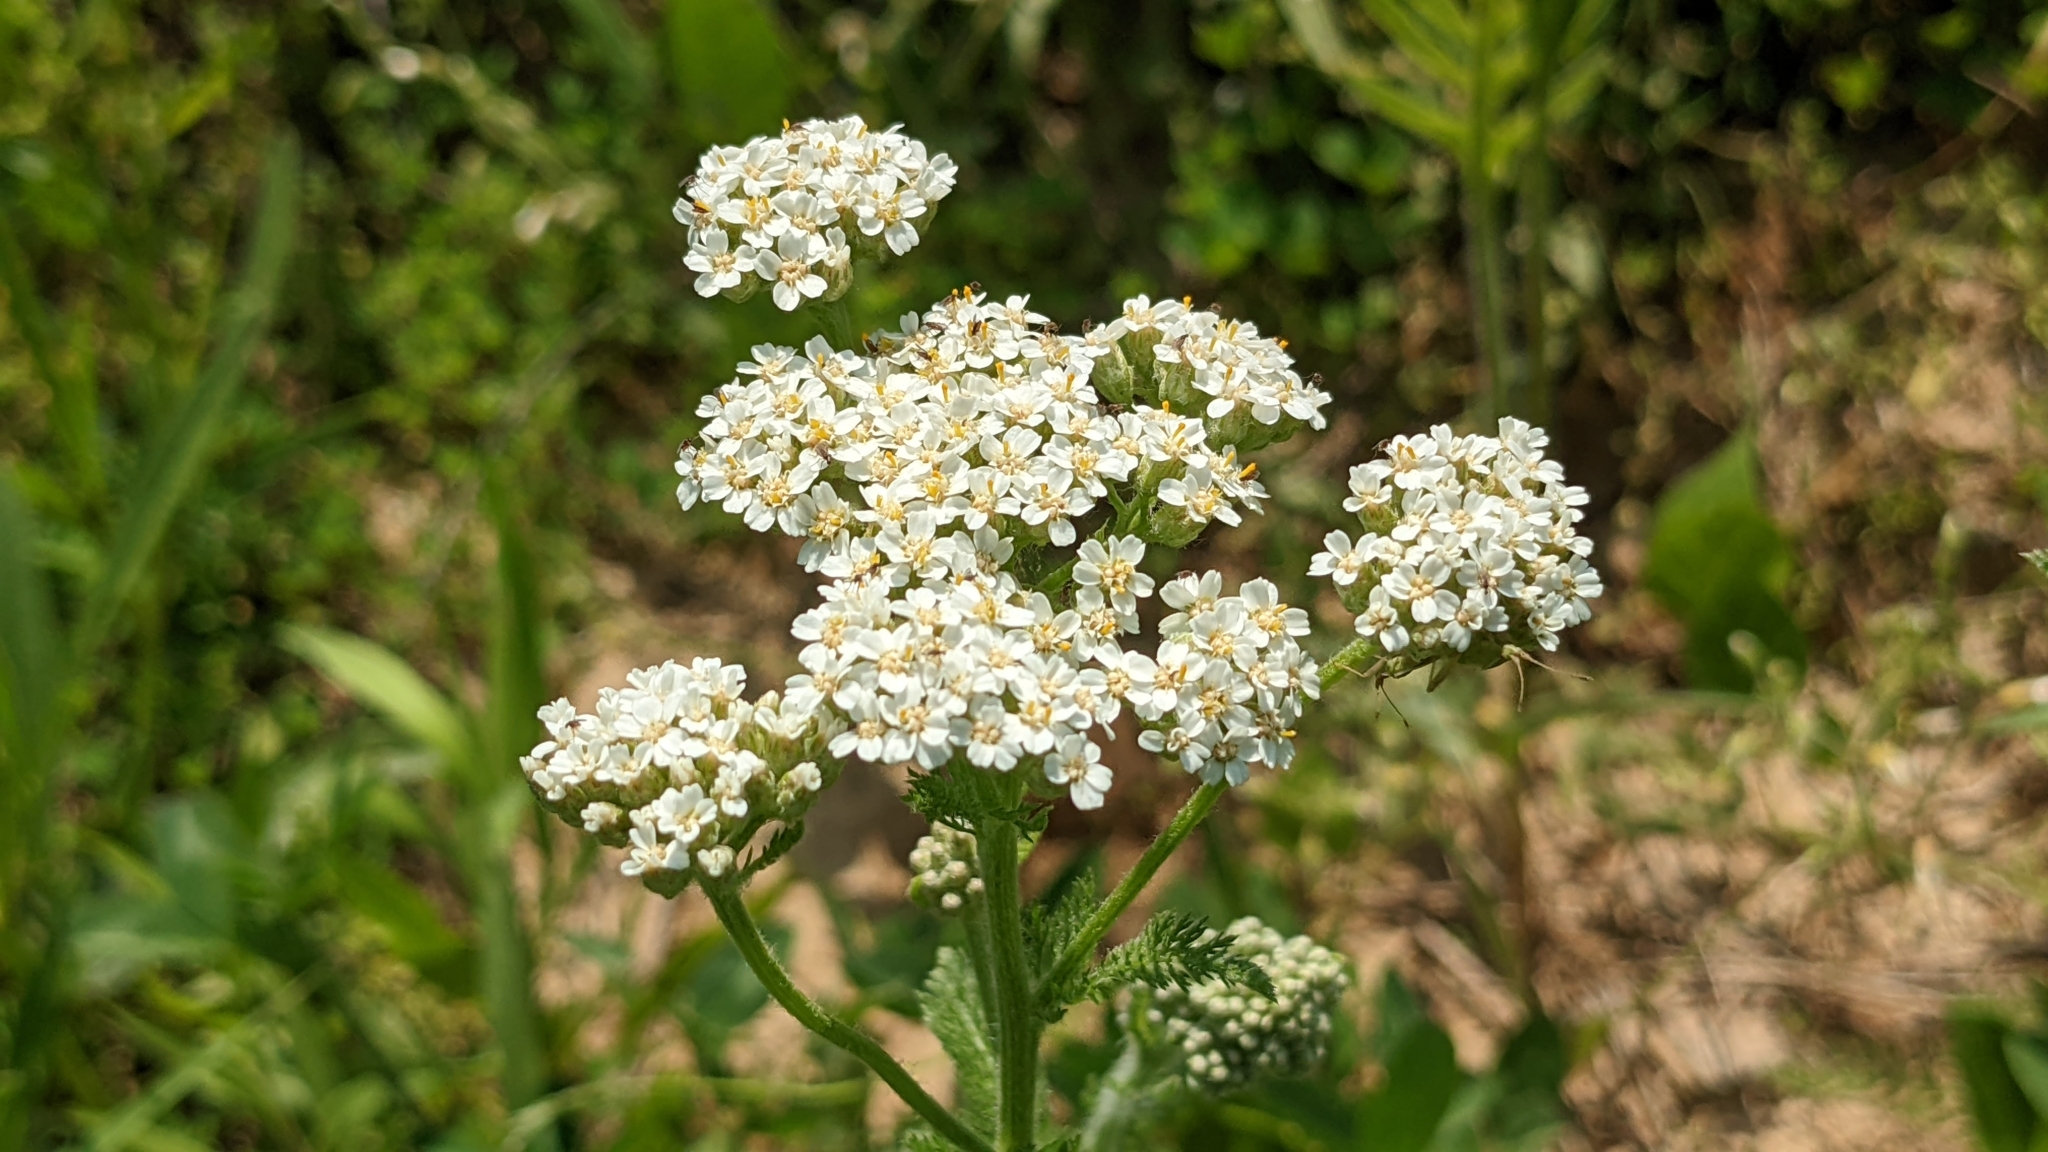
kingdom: Plantae
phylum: Tracheophyta
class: Magnoliopsida
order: Asterales
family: Asteraceae
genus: Achillea
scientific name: Achillea millefolium
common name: Yarrow
